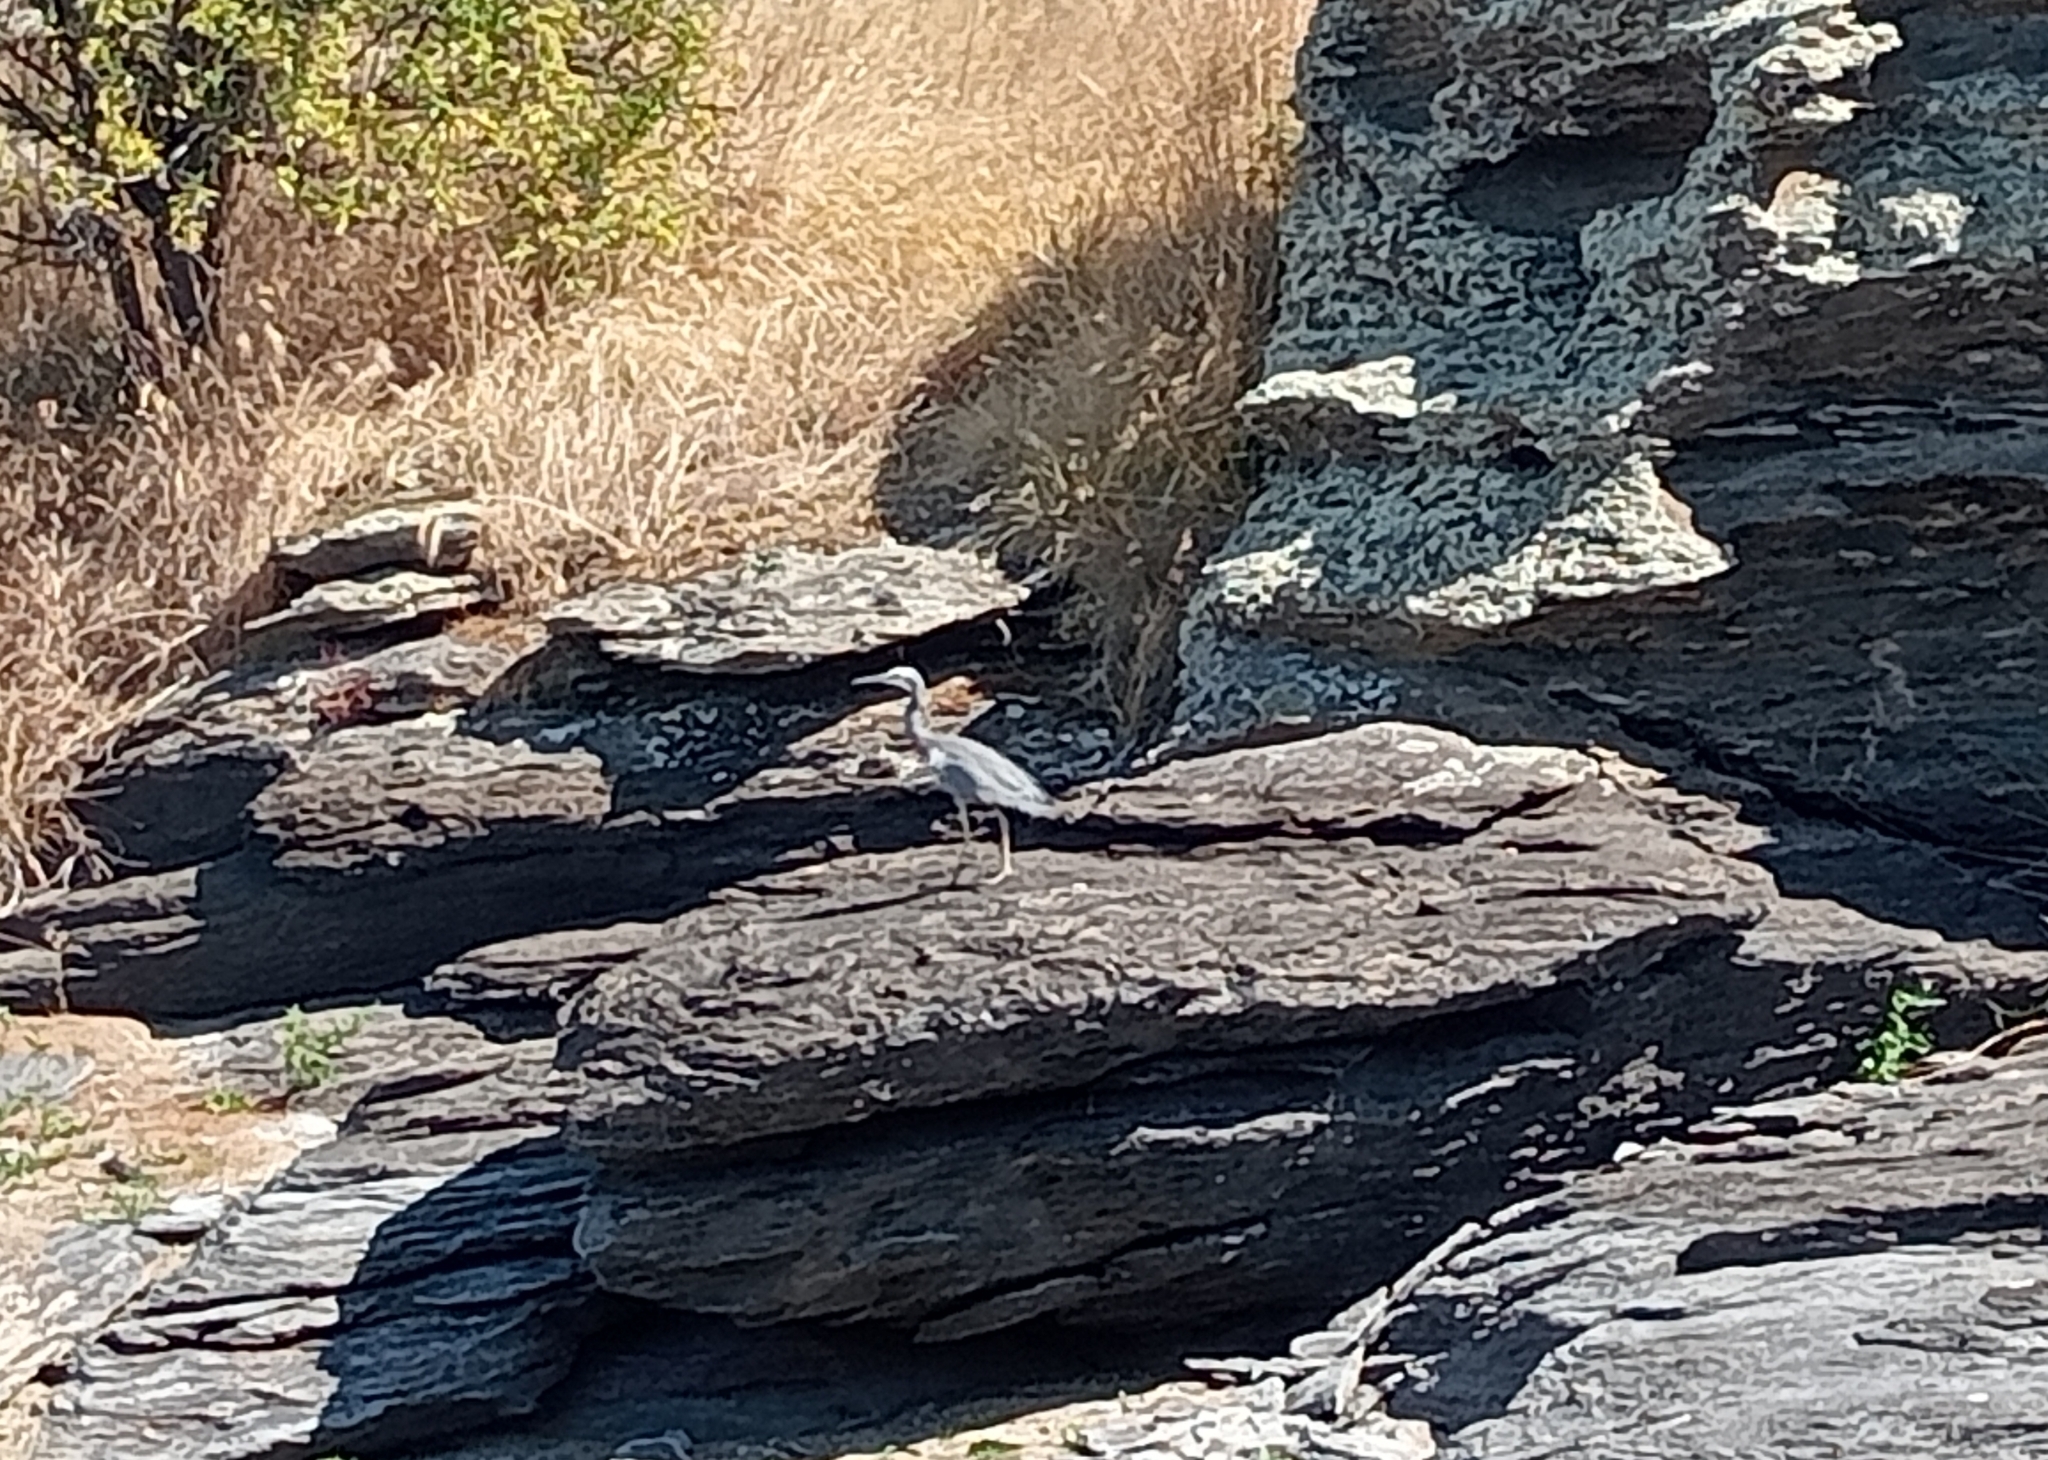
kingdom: Animalia
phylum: Chordata
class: Aves
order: Pelecaniformes
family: Ardeidae
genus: Egretta
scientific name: Egretta novaehollandiae
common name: White-faced heron
